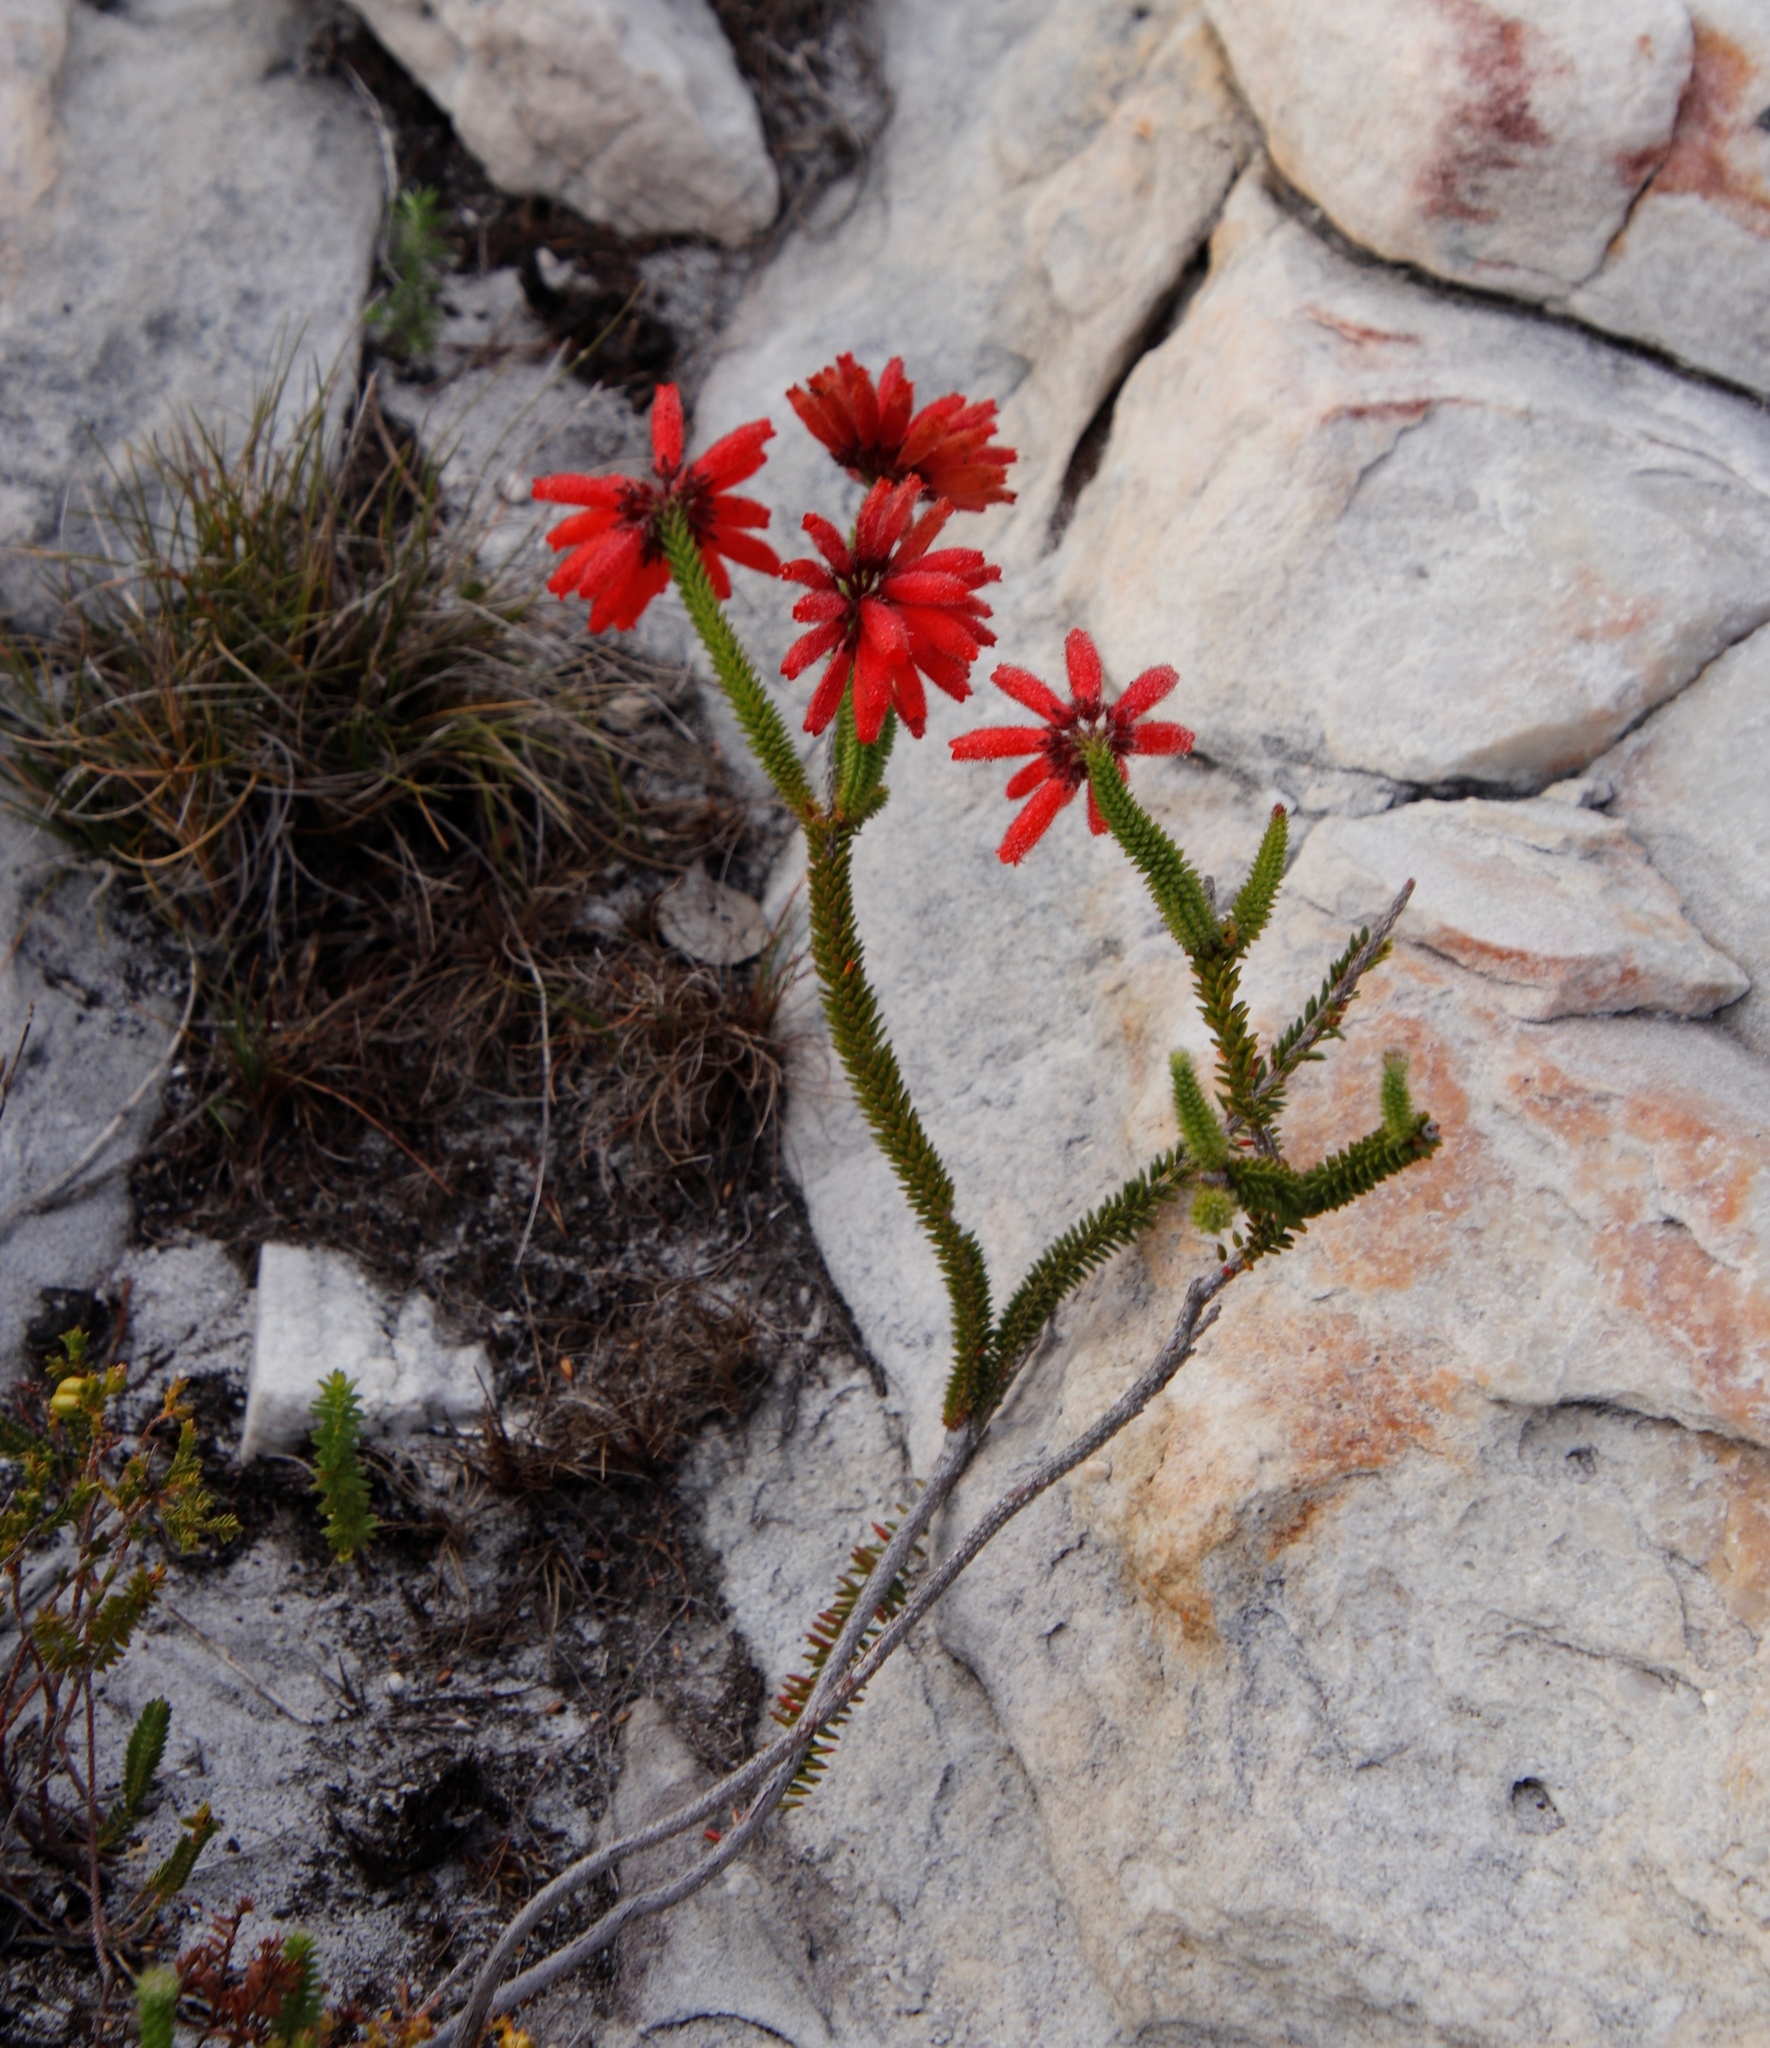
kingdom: Plantae
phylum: Tracheophyta
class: Magnoliopsida
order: Ericales
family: Ericaceae
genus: Erica
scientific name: Erica cerinthoides
